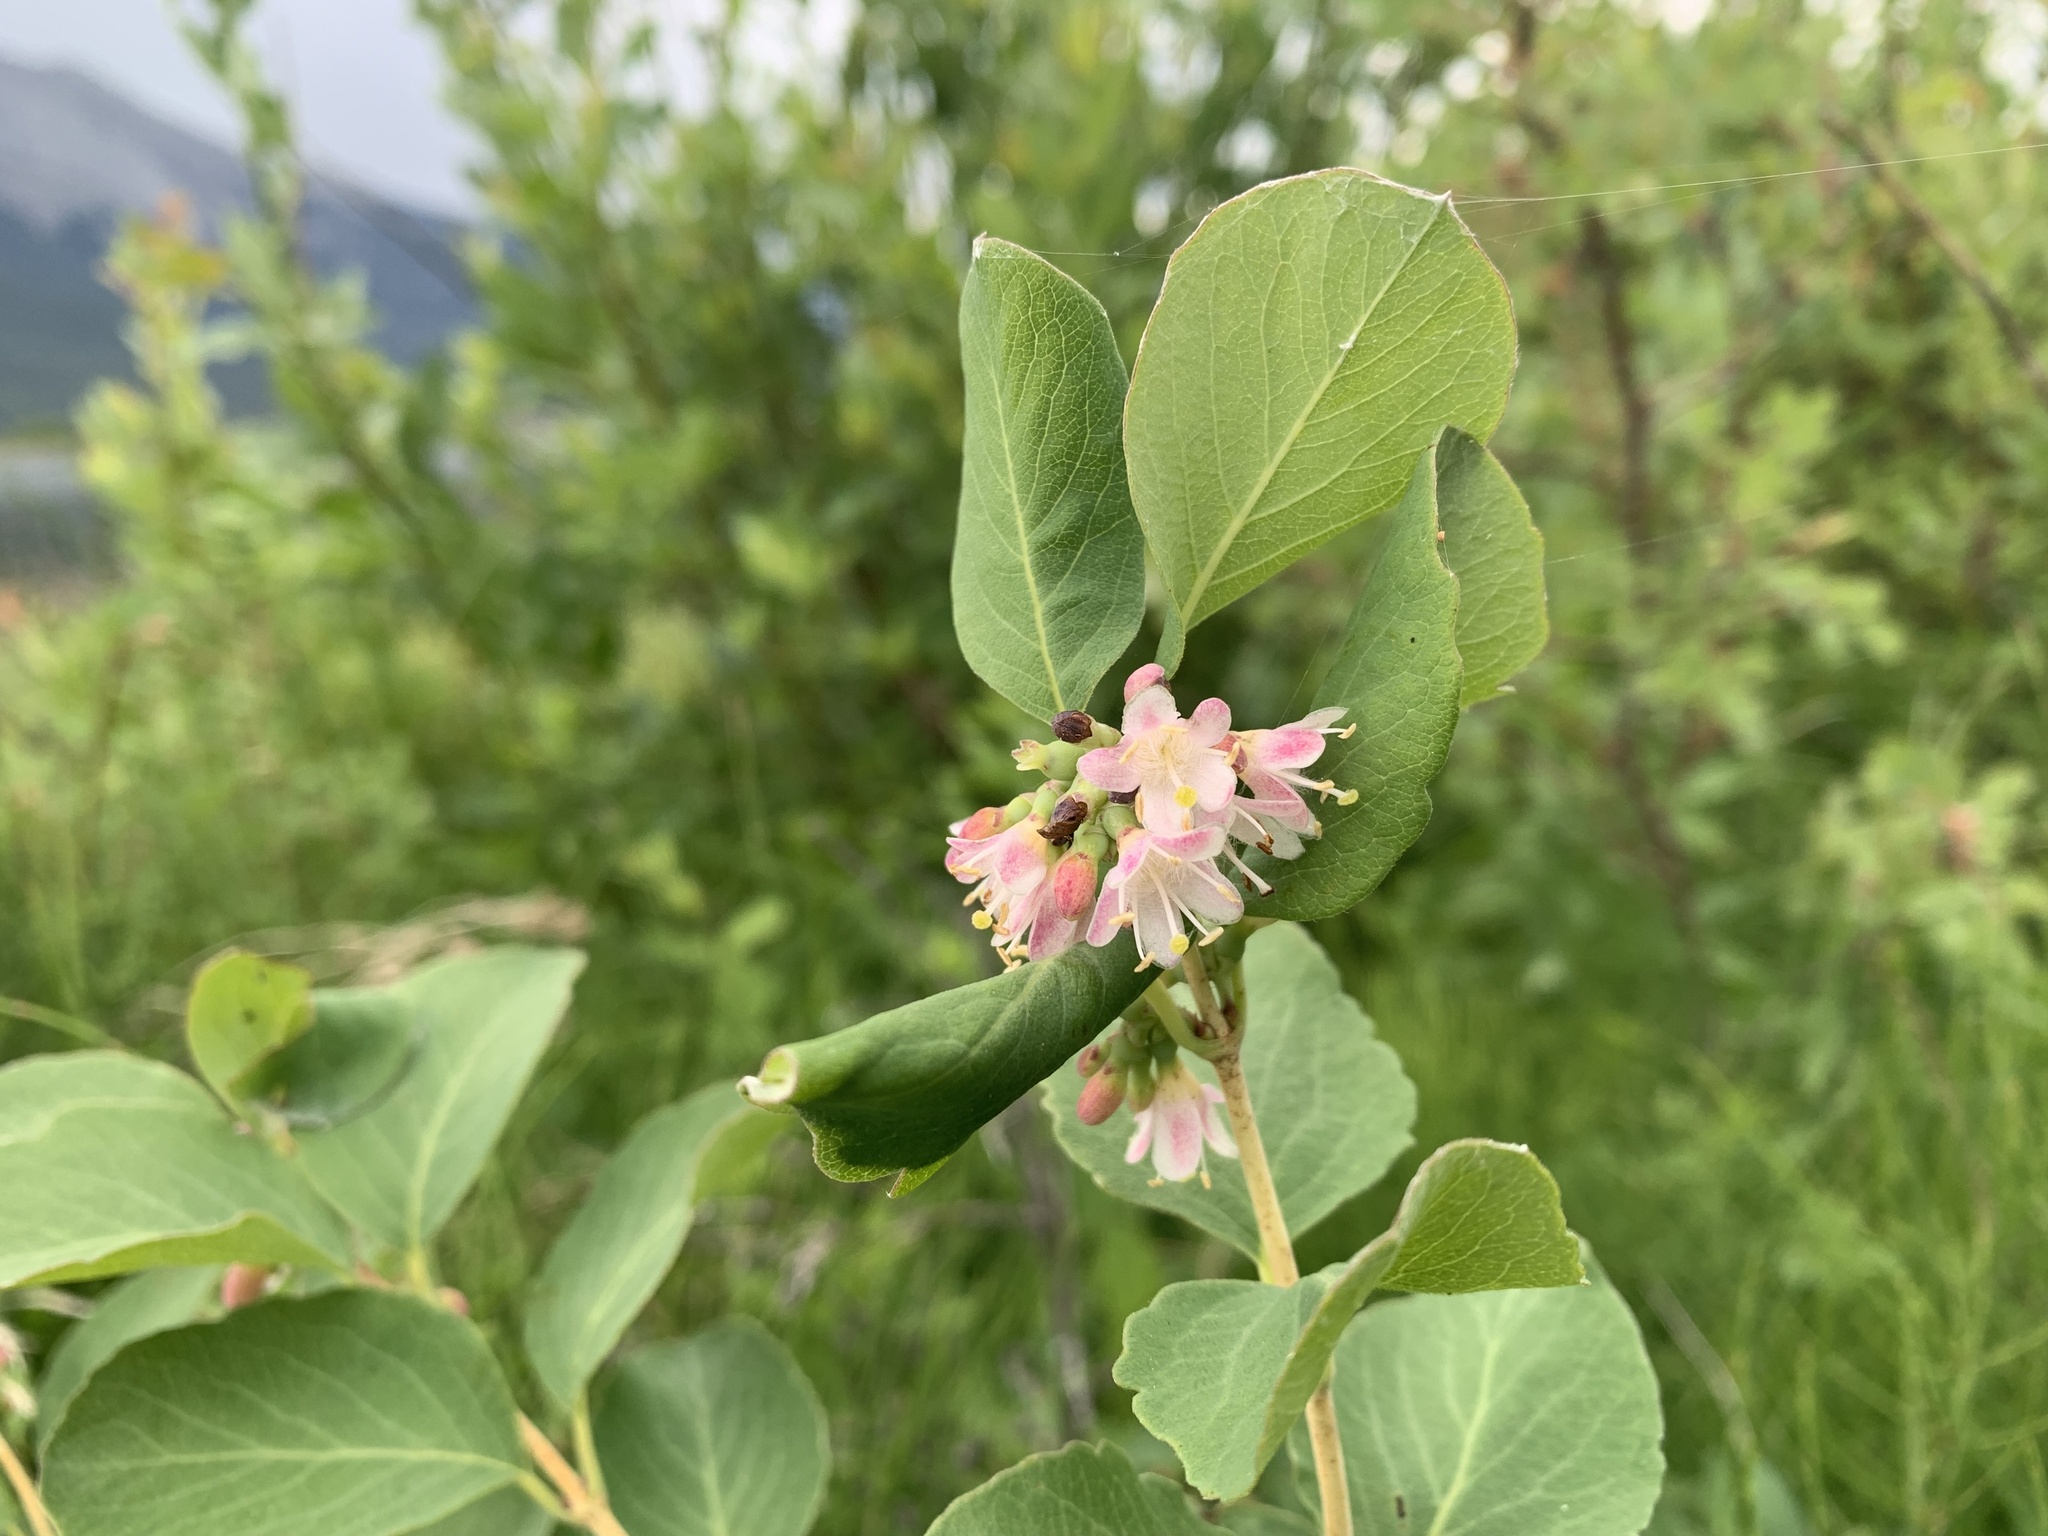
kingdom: Plantae
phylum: Tracheophyta
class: Magnoliopsida
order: Dipsacales
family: Caprifoliaceae
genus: Symphoricarpos
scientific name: Symphoricarpos occidentalis
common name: Wolfberry
